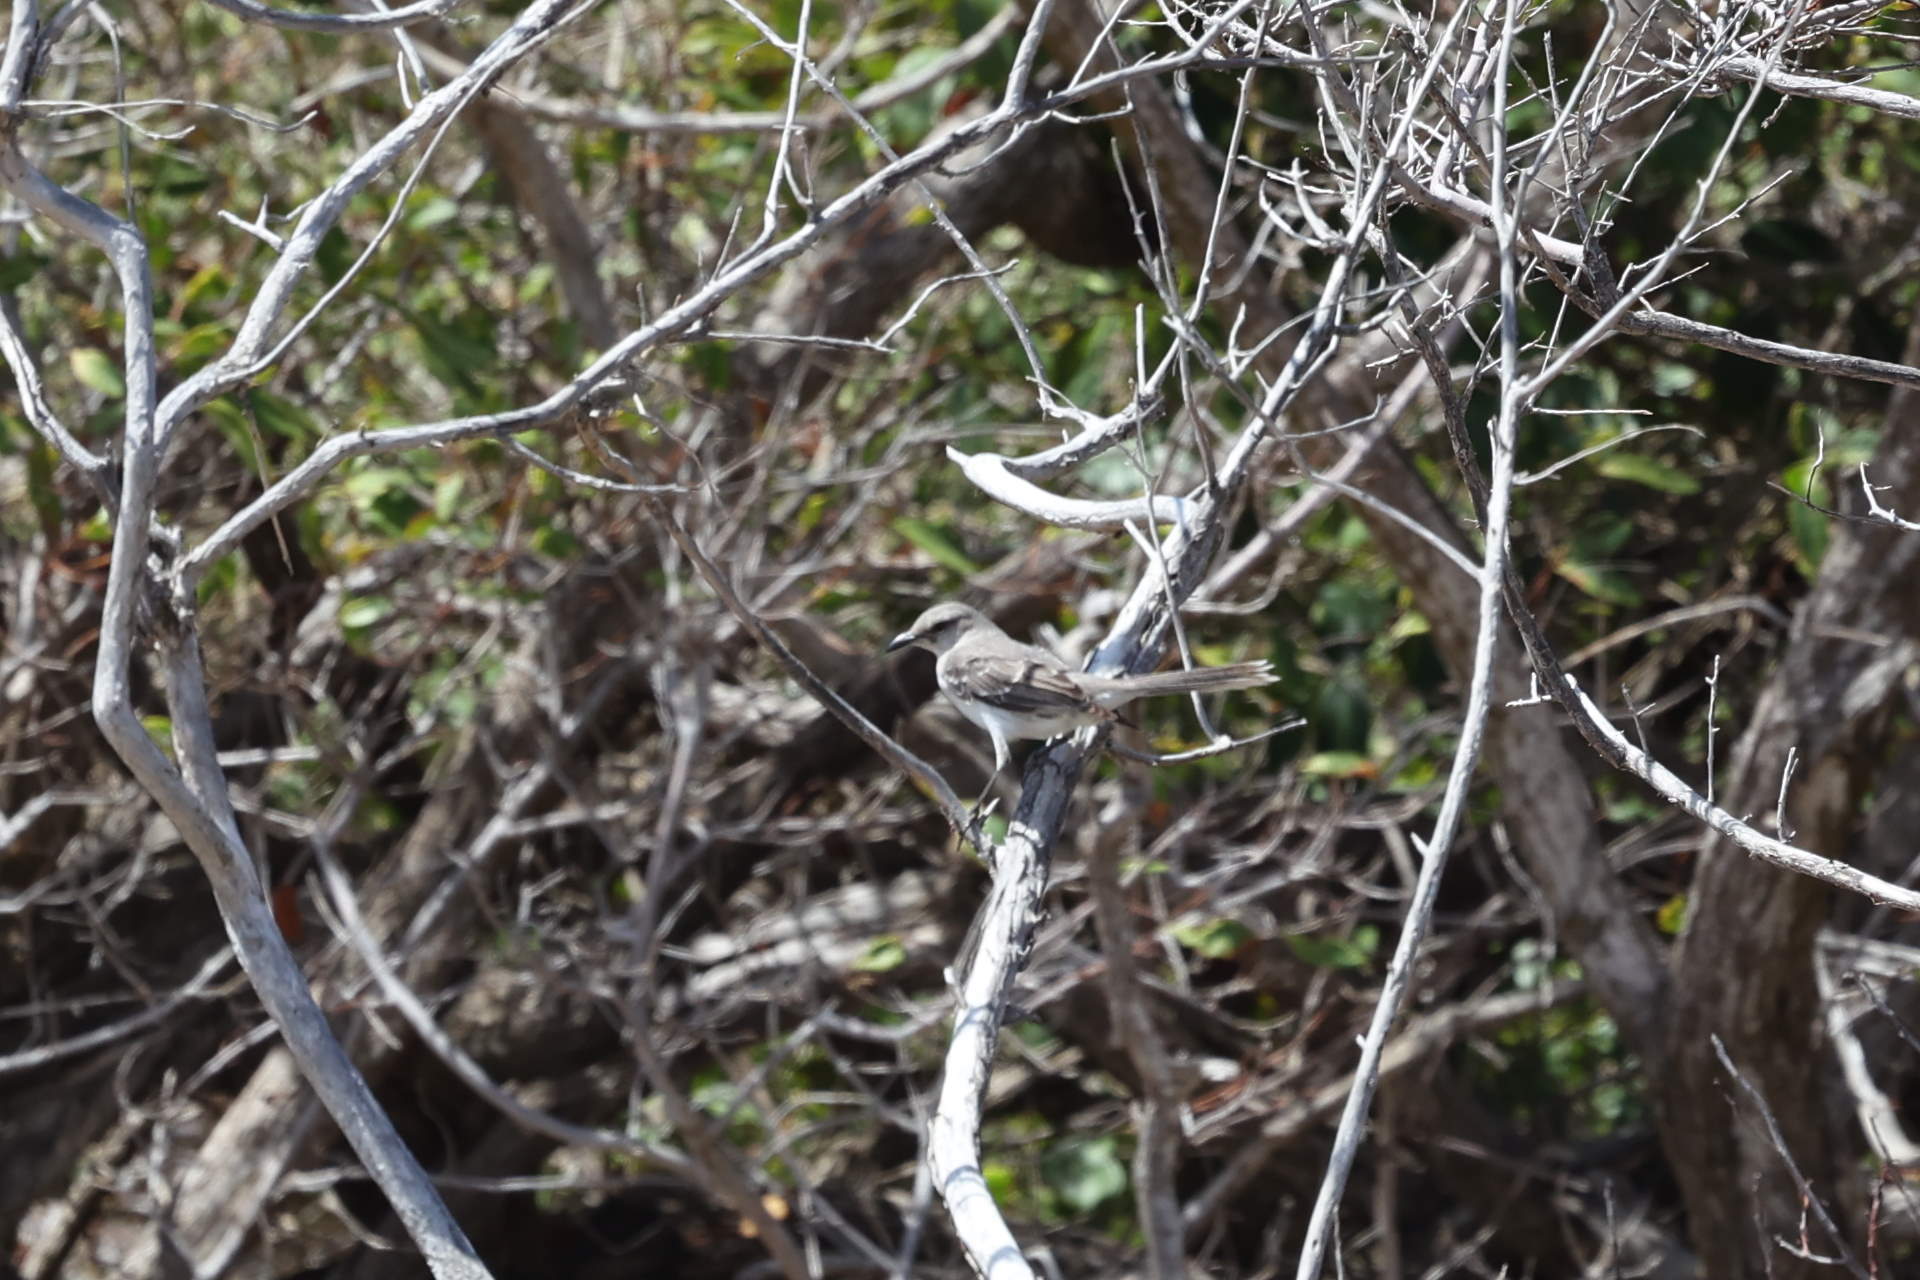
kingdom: Animalia
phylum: Chordata
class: Aves
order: Passeriformes
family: Mimidae
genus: Mimus
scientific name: Mimus gilvus
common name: Tropical mockingbird
